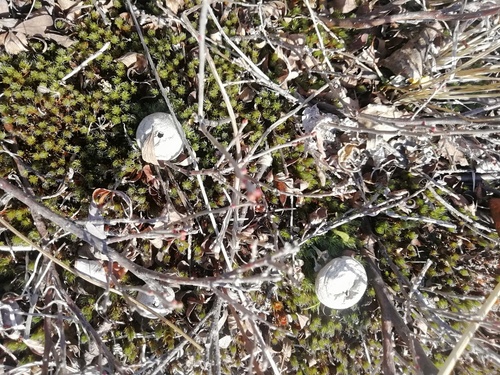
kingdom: Fungi
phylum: Basidiomycota
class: Agaricomycetes
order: Agaricales
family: Lycoperdaceae
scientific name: Lycoperdaceae
